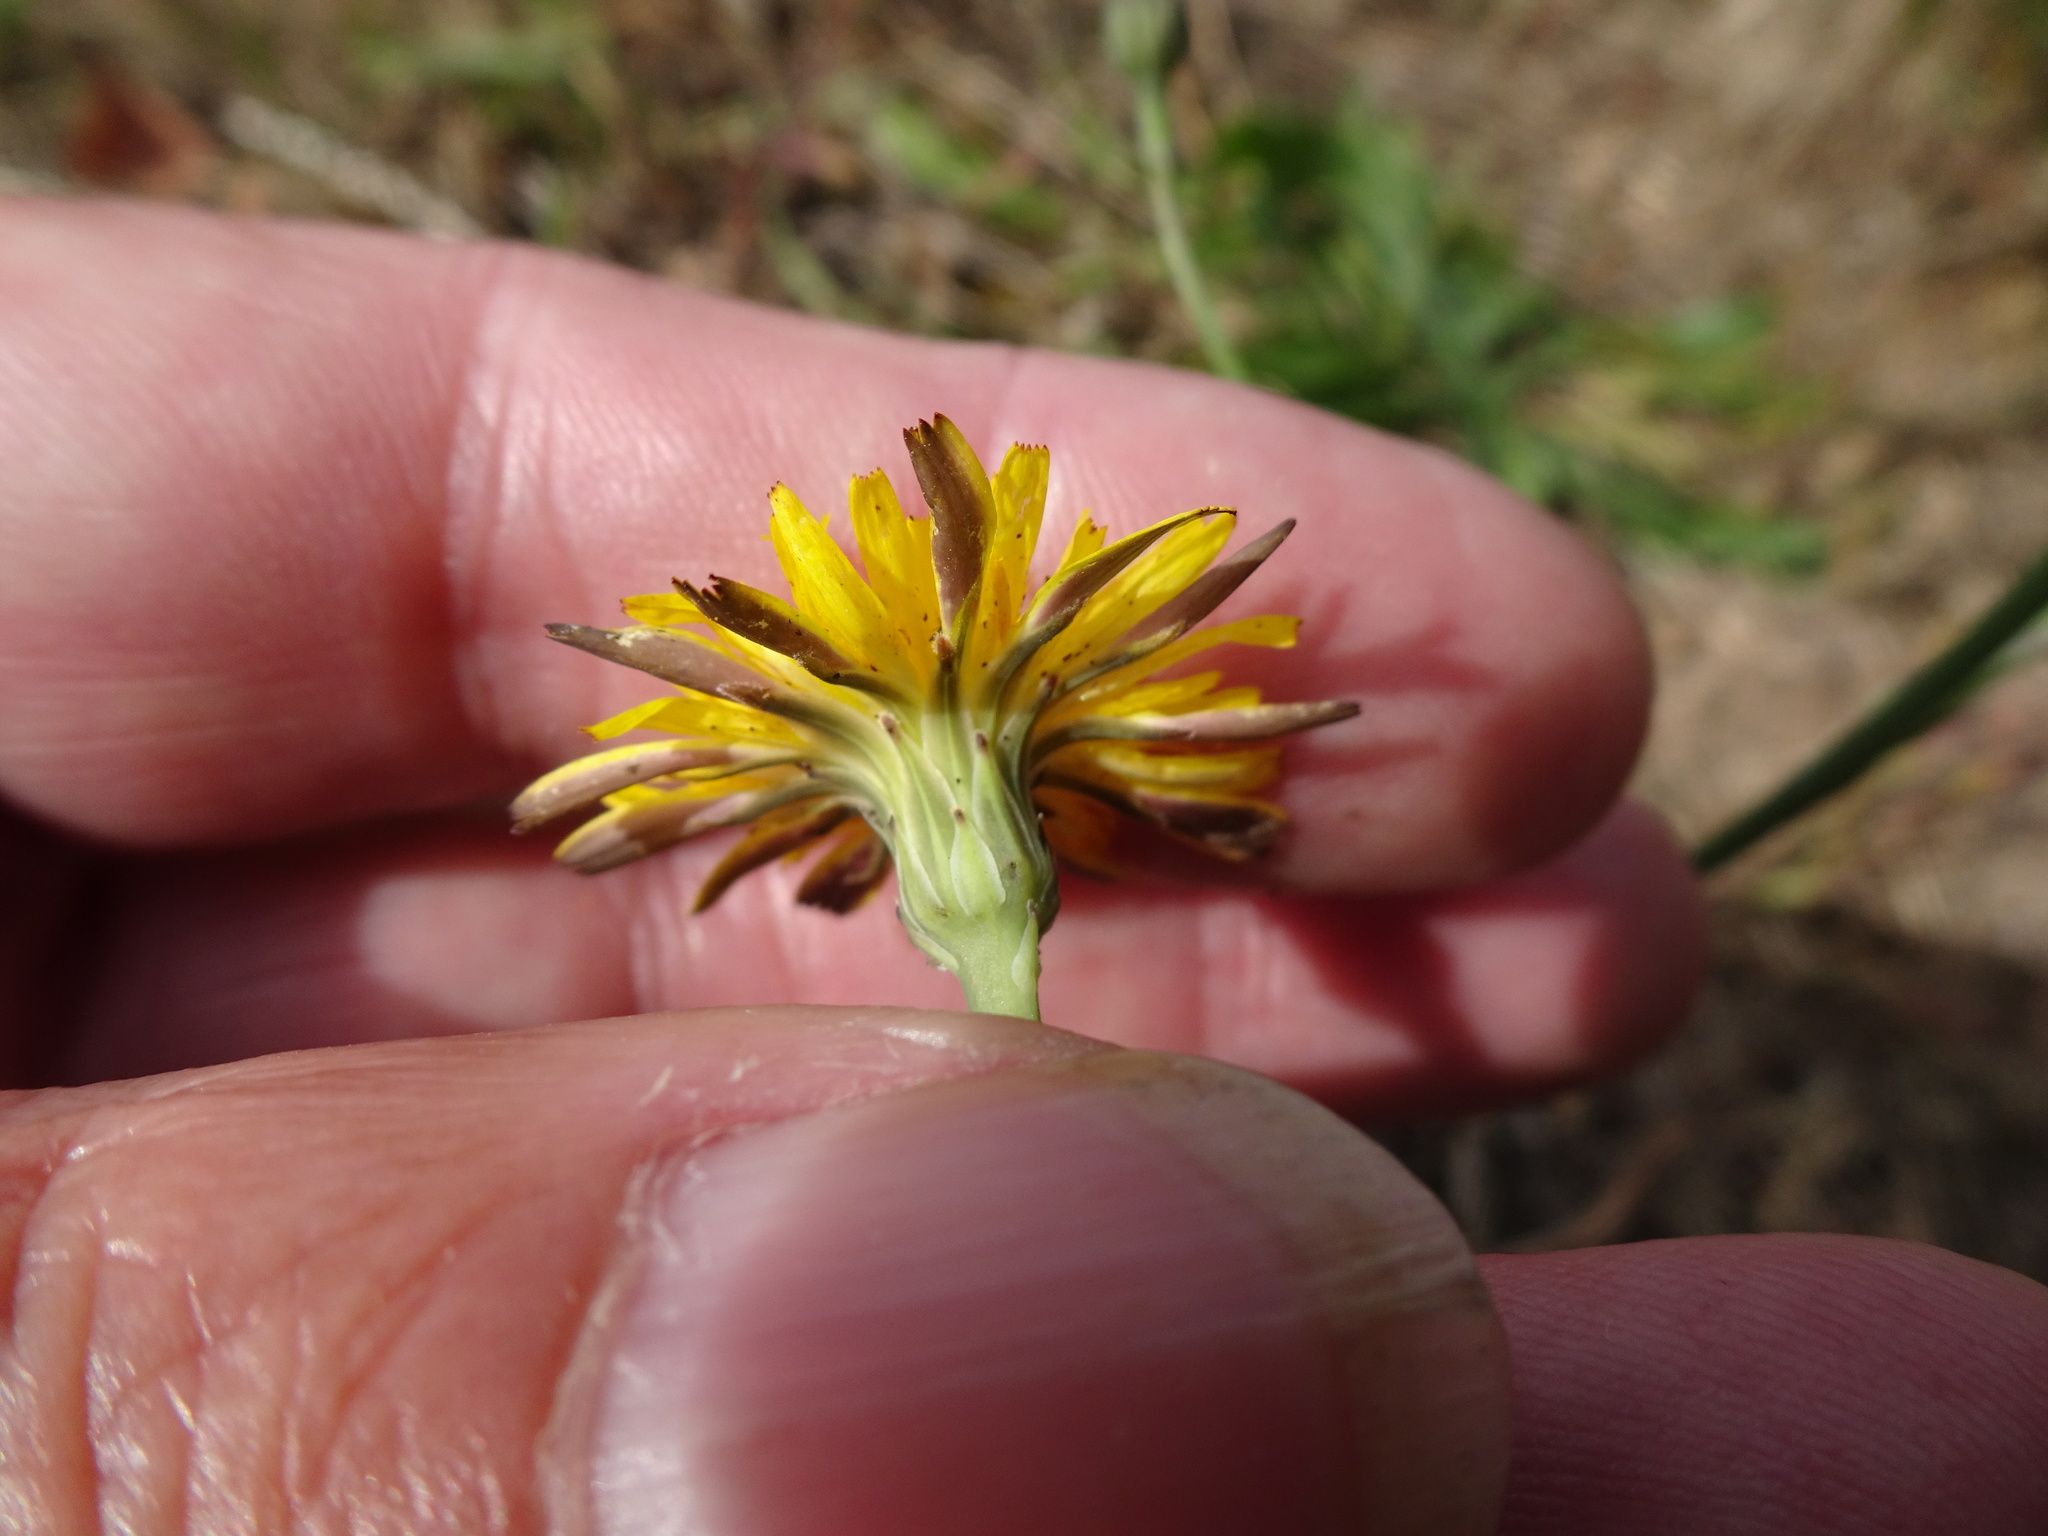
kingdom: Plantae
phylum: Tracheophyta
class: Magnoliopsida
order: Asterales
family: Asteraceae
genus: Hypochaeris
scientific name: Hypochaeris radicata
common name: Flatweed
